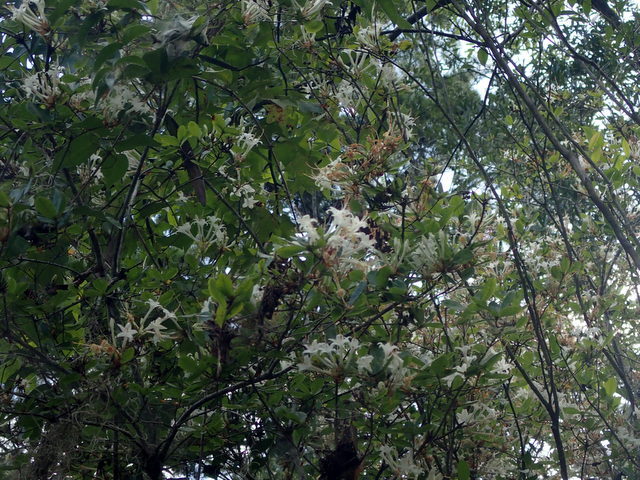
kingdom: Plantae
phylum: Tracheophyta
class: Magnoliopsida
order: Ericales
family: Ericaceae
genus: Rhododendron
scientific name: Rhododendron serrulatum
